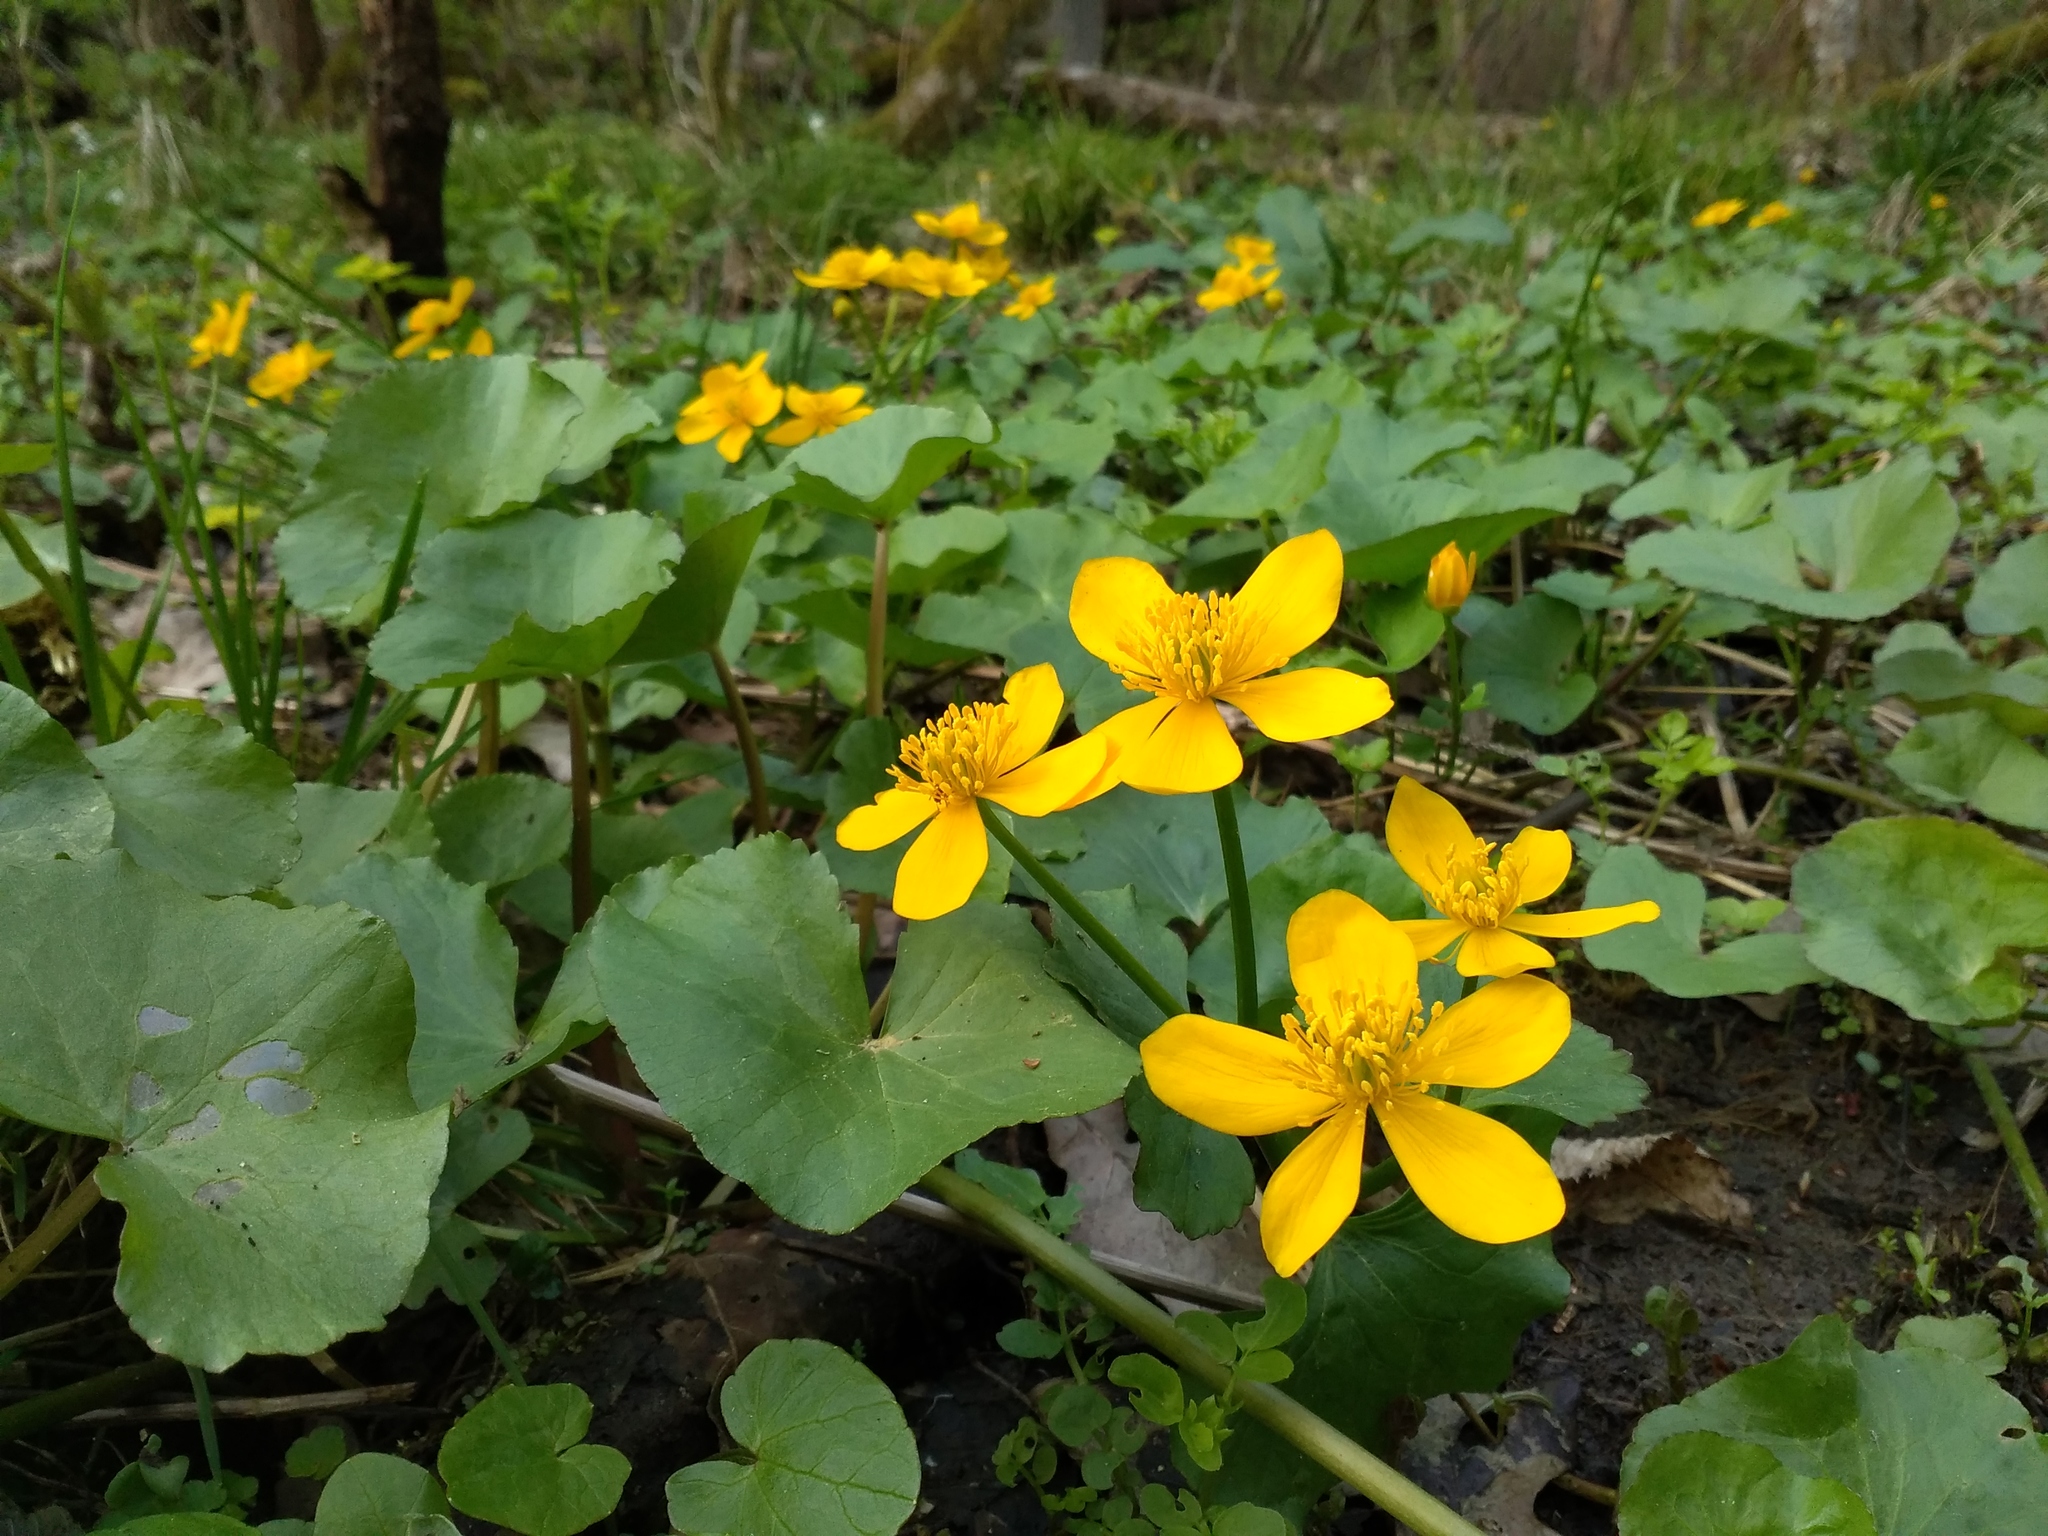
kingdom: Plantae
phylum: Tracheophyta
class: Magnoliopsida
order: Ranunculales
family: Ranunculaceae
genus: Caltha
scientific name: Caltha palustris
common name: Marsh marigold
